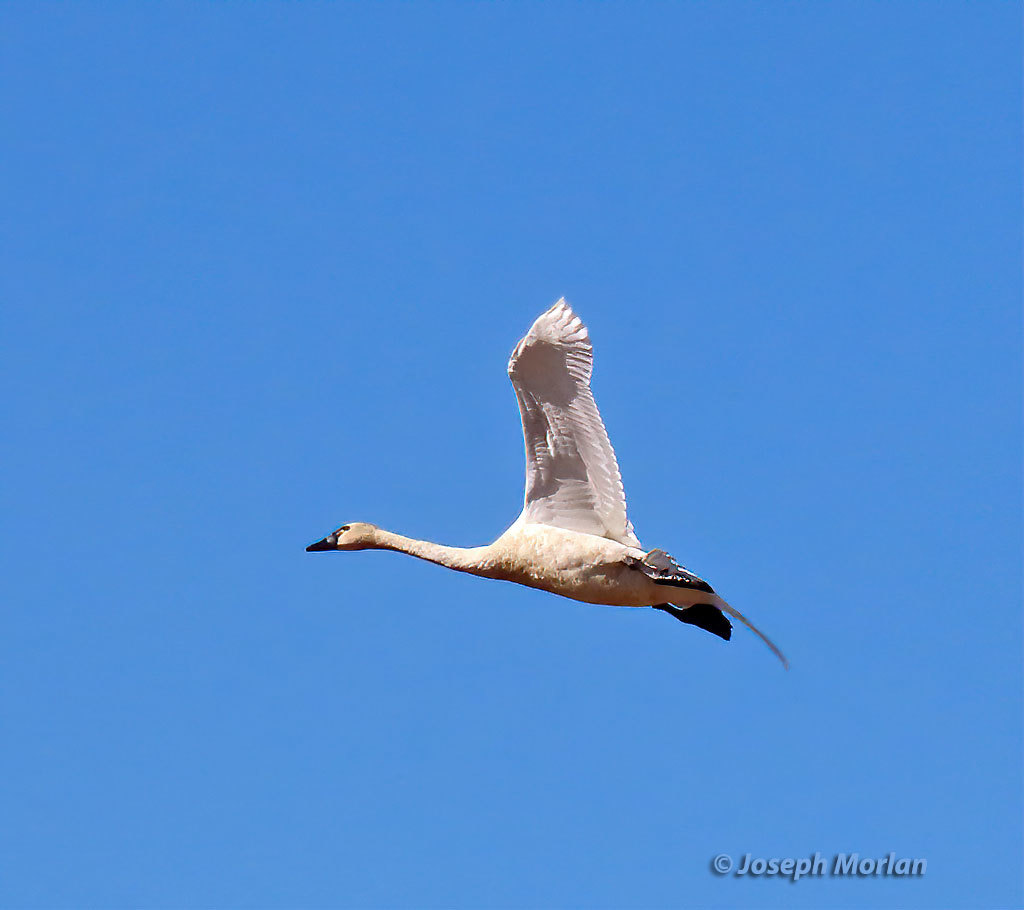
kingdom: Animalia
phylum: Chordata
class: Aves
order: Anseriformes
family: Anatidae
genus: Cygnus
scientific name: Cygnus columbianus
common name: Tundra swan
